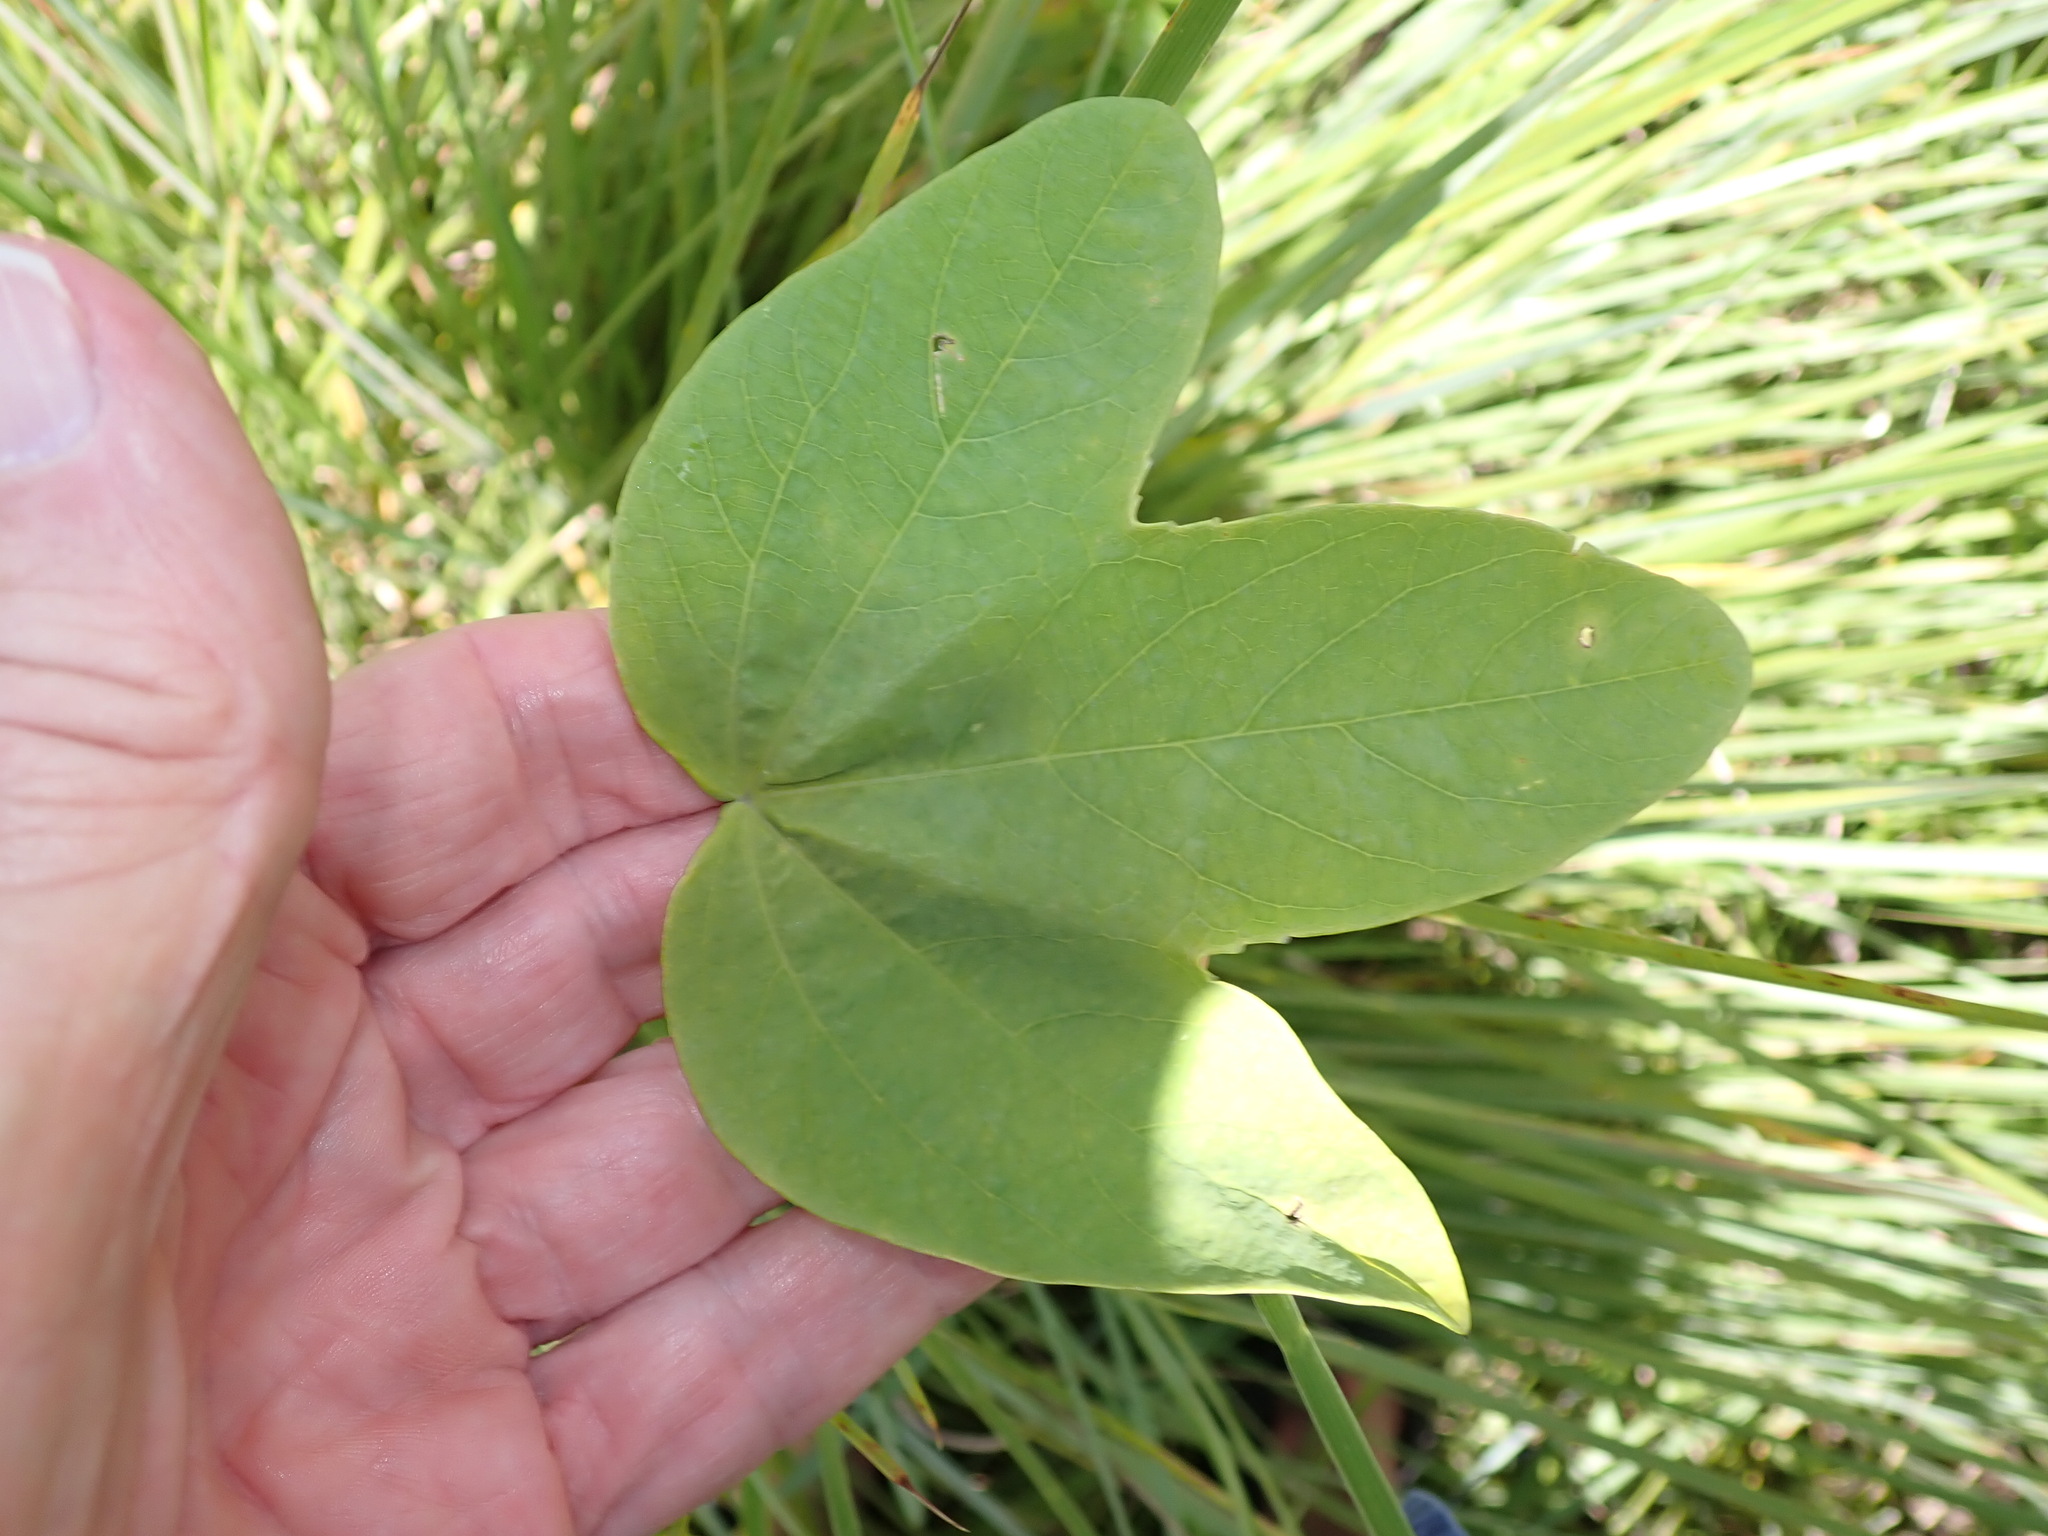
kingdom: Plantae
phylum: Tracheophyta
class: Magnoliopsida
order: Malpighiales
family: Passifloraceae
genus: Passiflora
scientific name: Passiflora subpeltata
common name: White passionflower
